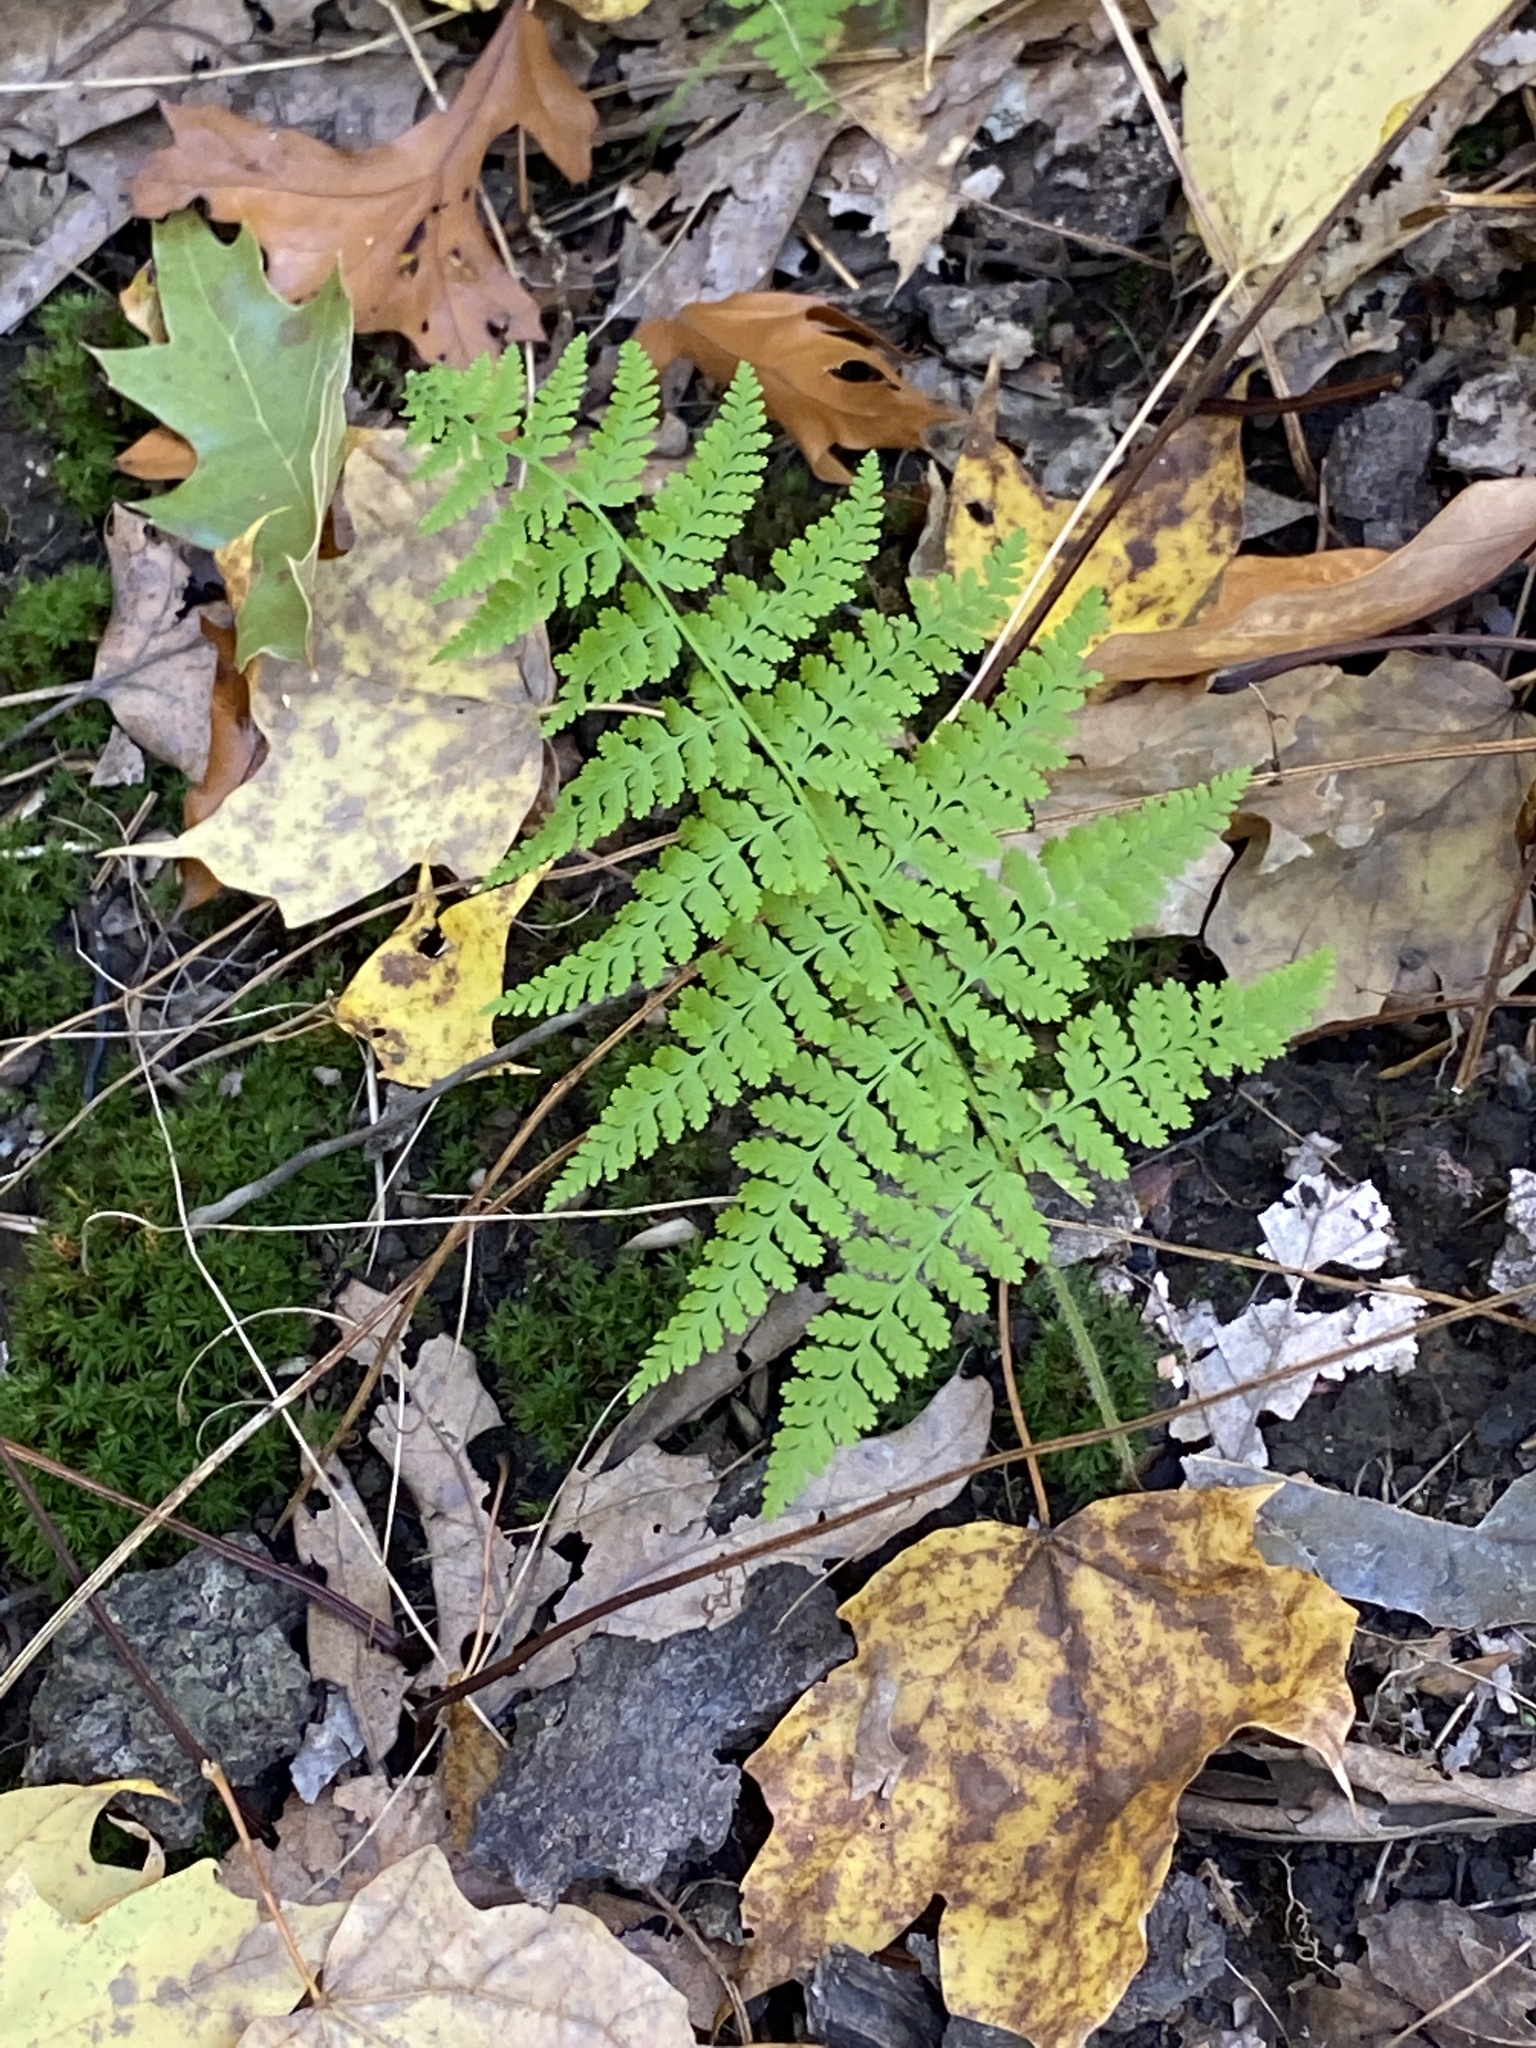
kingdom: Plantae
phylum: Tracheophyta
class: Polypodiopsida
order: Polypodiales
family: Dennstaedtiaceae
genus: Sitobolium
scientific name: Sitobolium punctilobum
